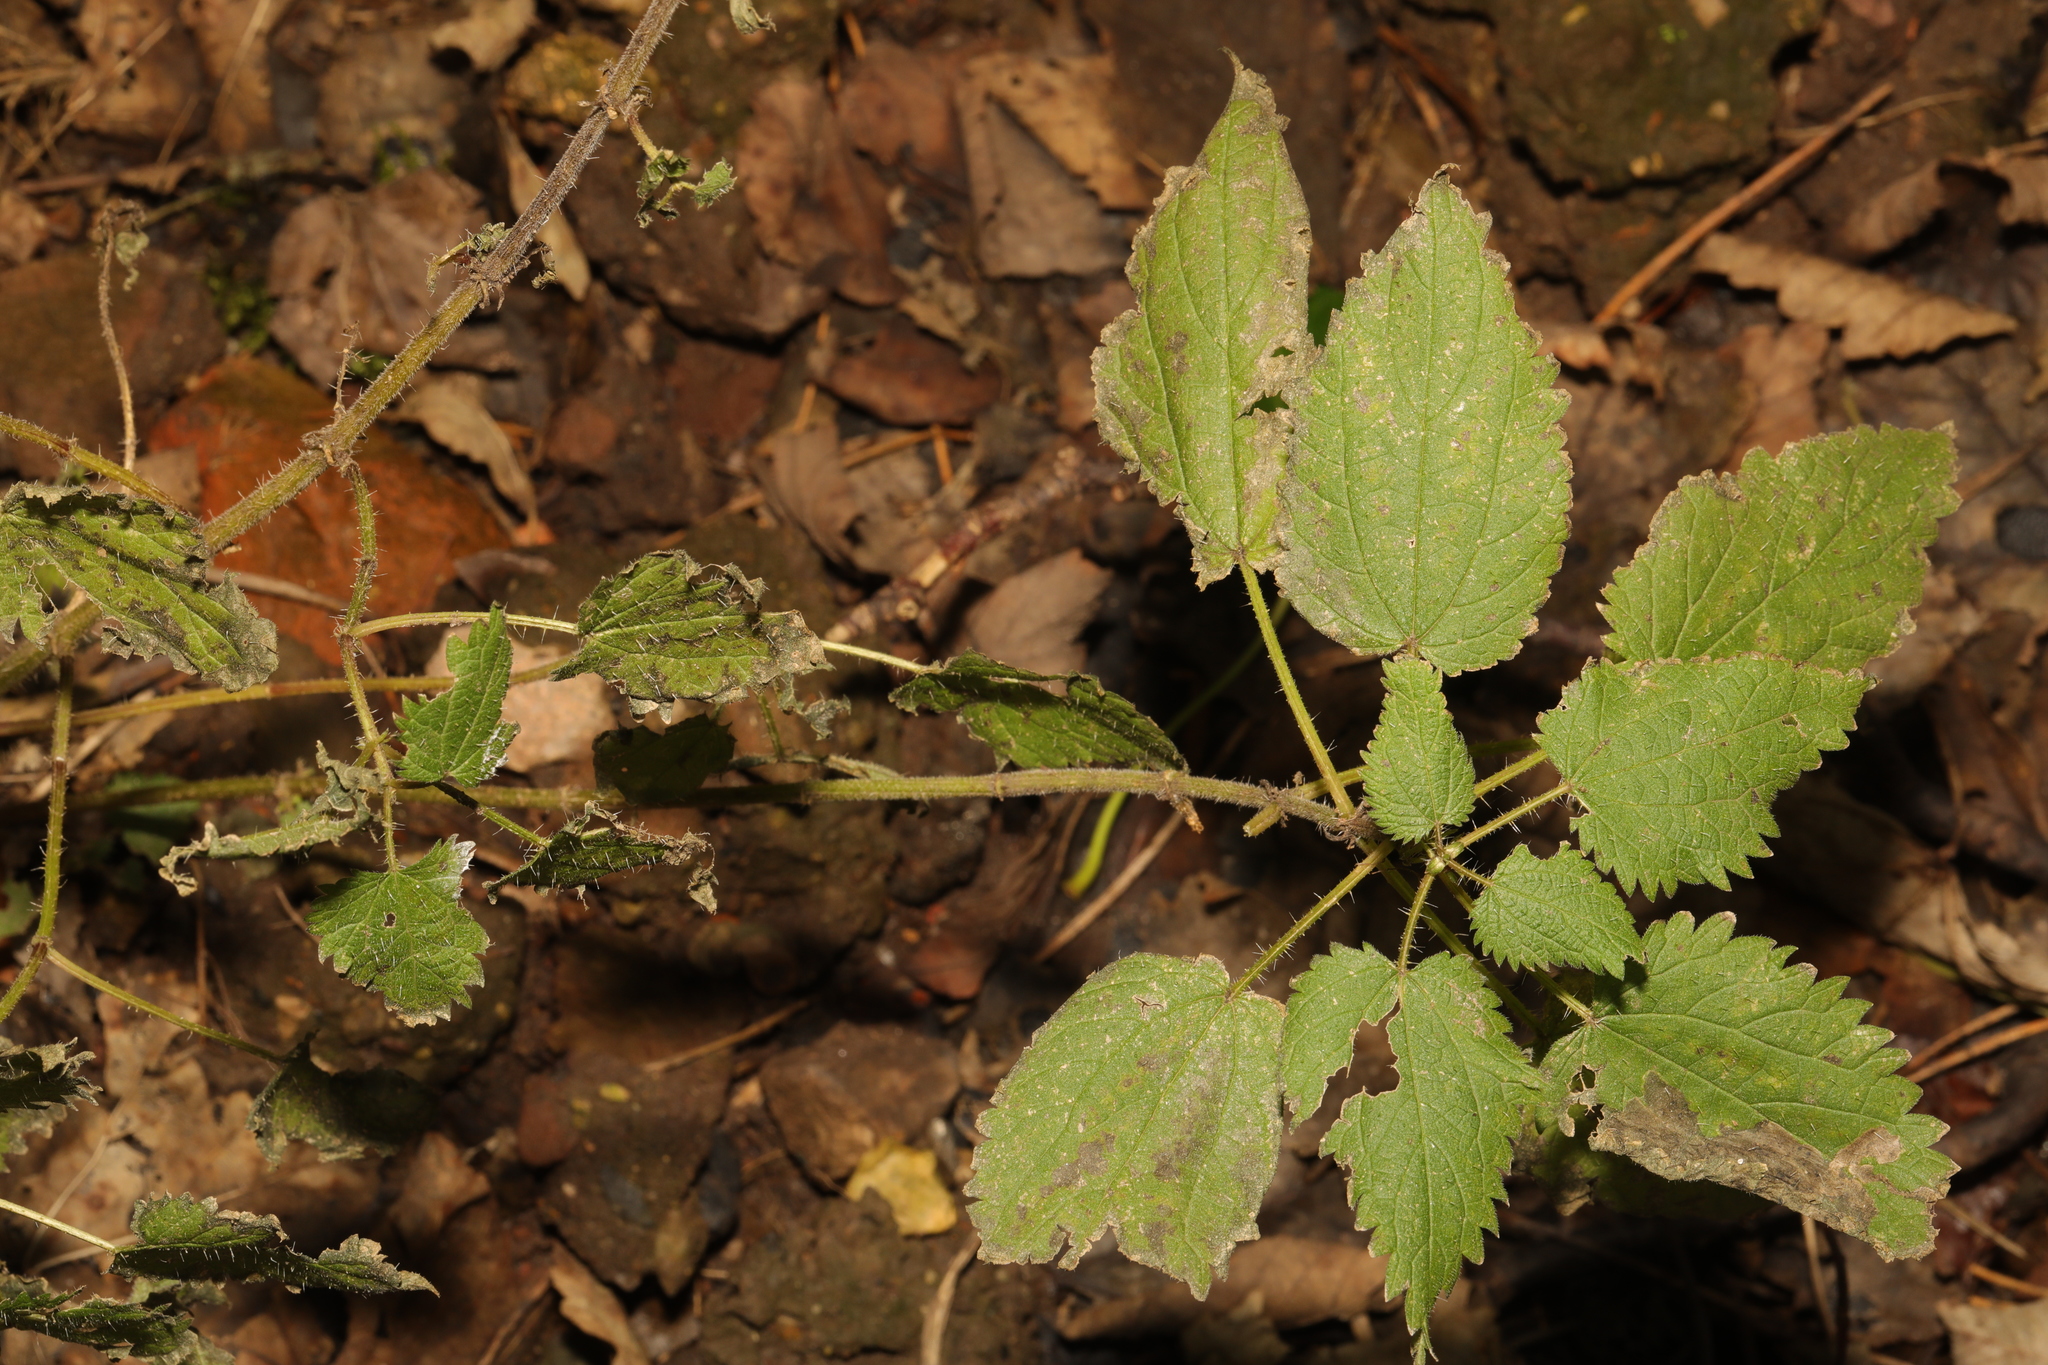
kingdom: Plantae
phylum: Tracheophyta
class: Magnoliopsida
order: Rosales
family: Urticaceae
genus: Urtica
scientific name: Urtica dioica
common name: Common nettle
